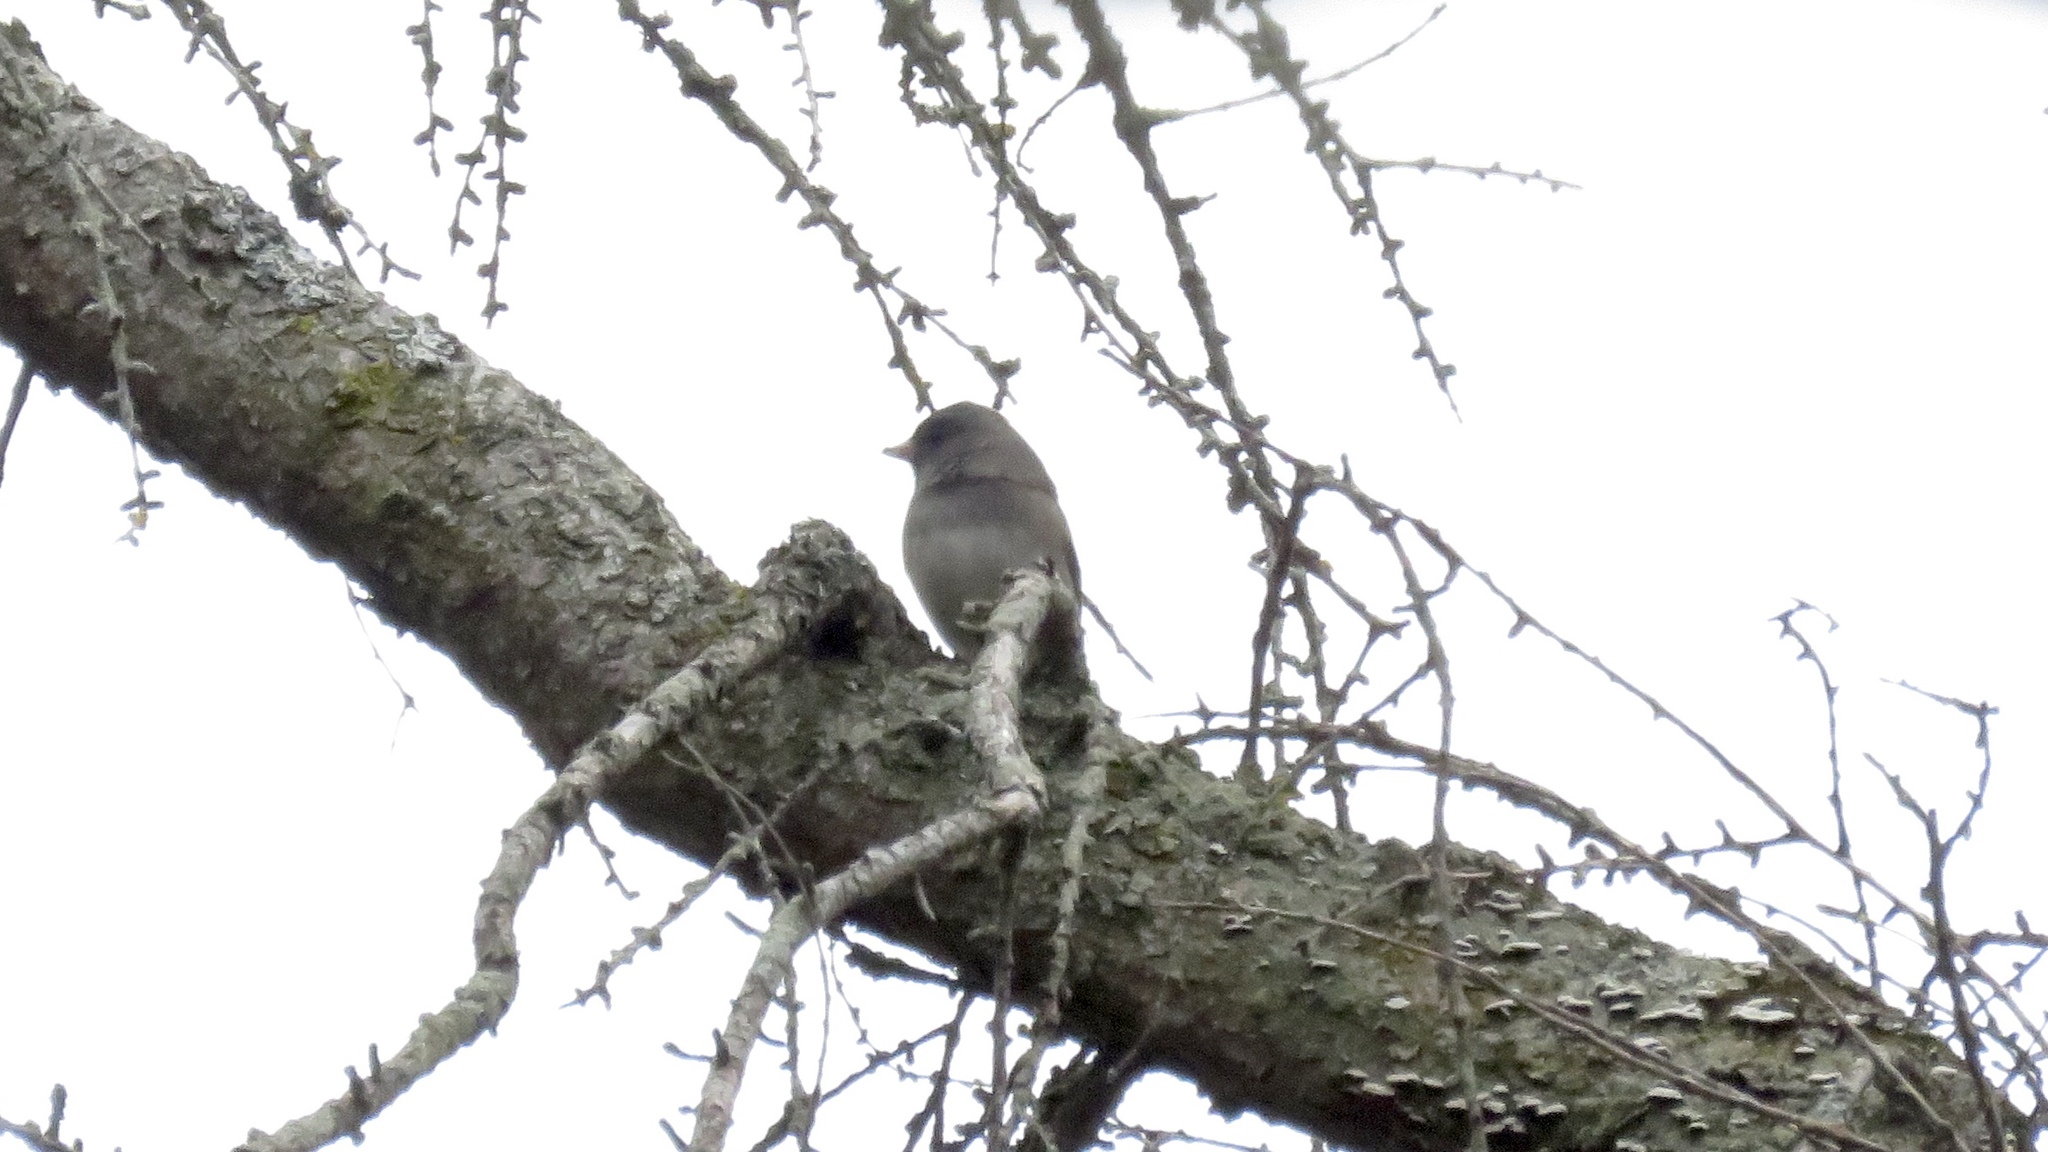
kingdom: Animalia
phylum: Chordata
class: Aves
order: Passeriformes
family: Passerellidae
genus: Junco
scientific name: Junco hyemalis
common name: Dark-eyed junco
